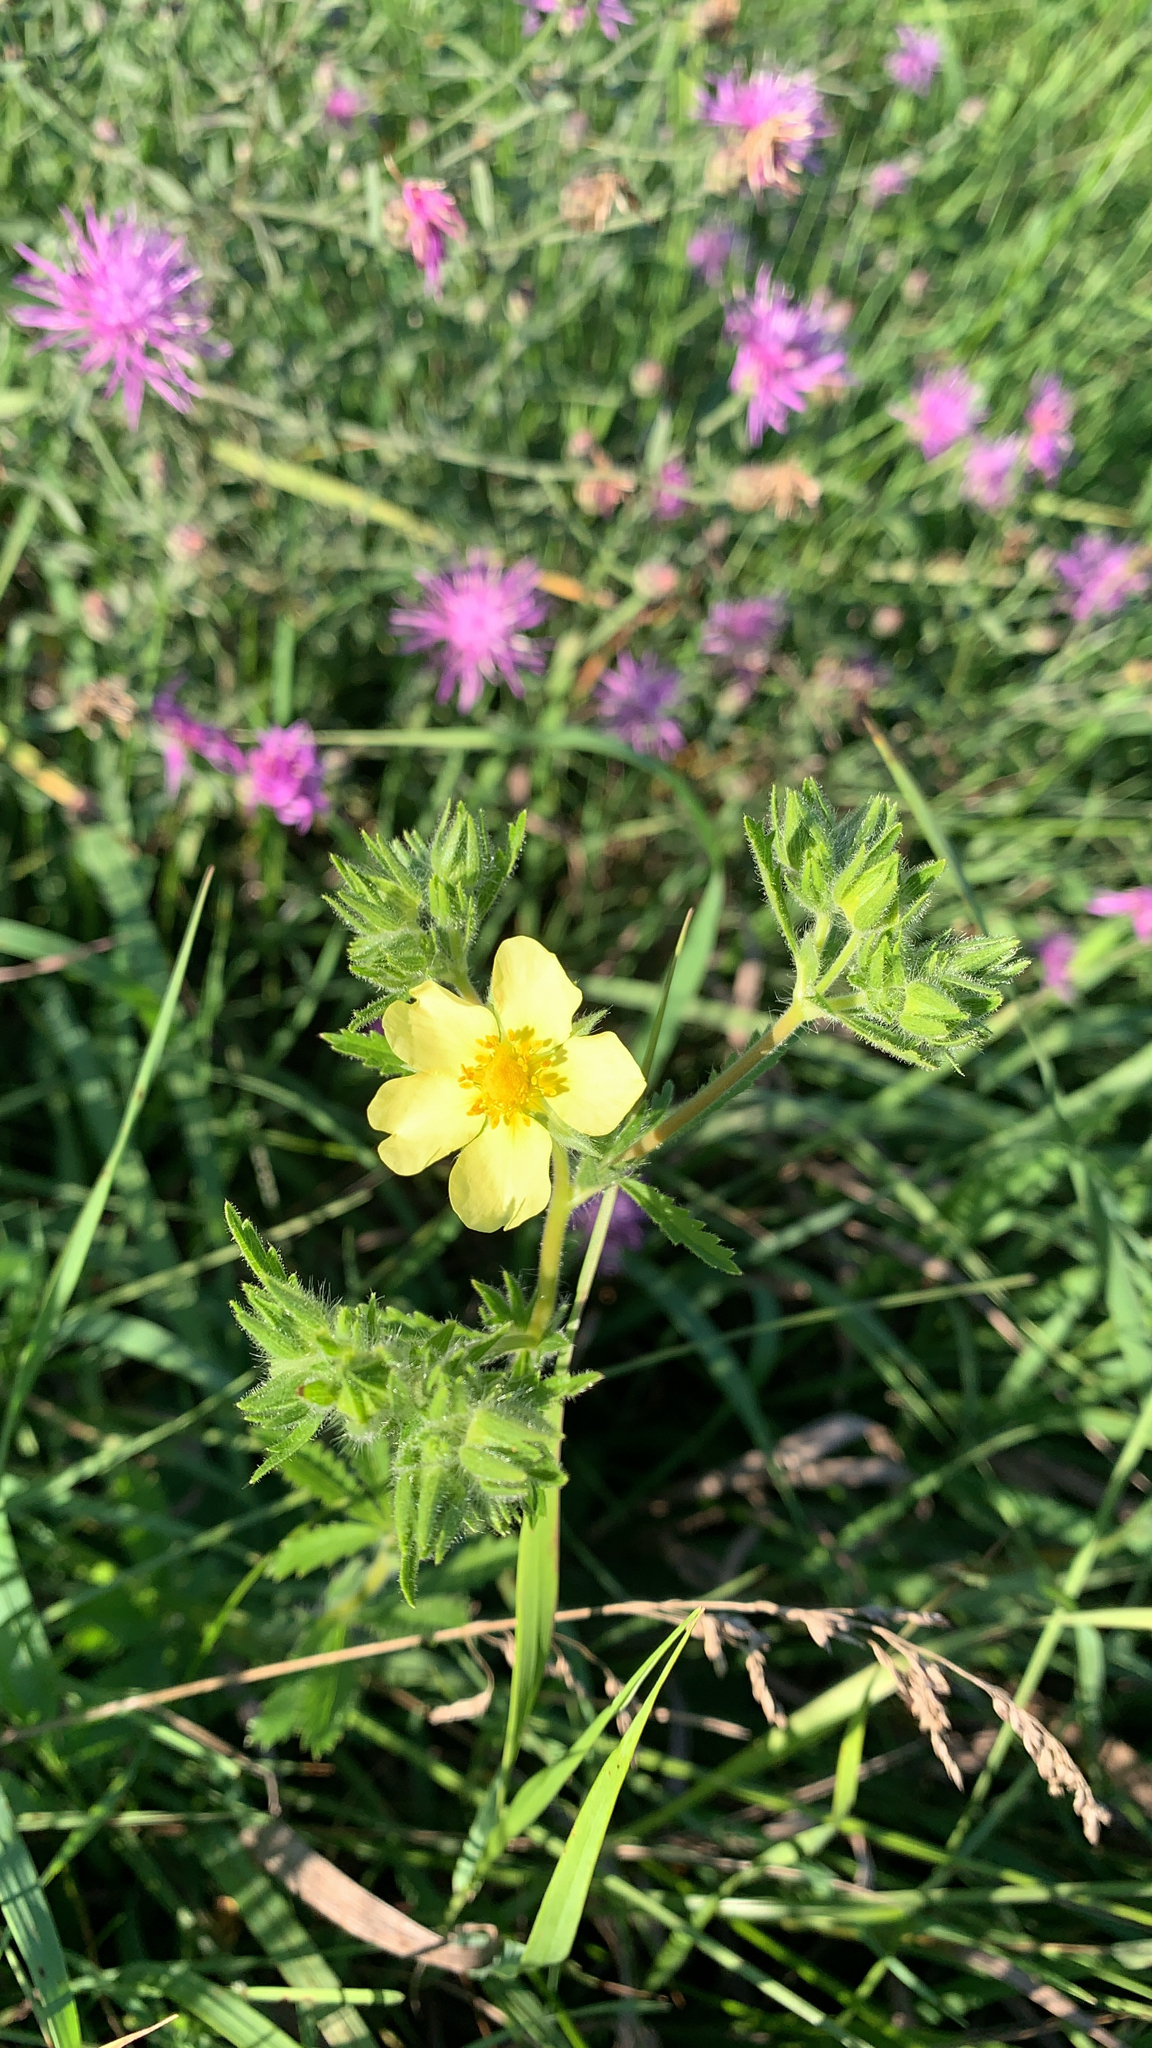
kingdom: Plantae
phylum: Tracheophyta
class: Magnoliopsida
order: Rosales
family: Rosaceae
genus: Potentilla
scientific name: Potentilla recta
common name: Sulphur cinquefoil
